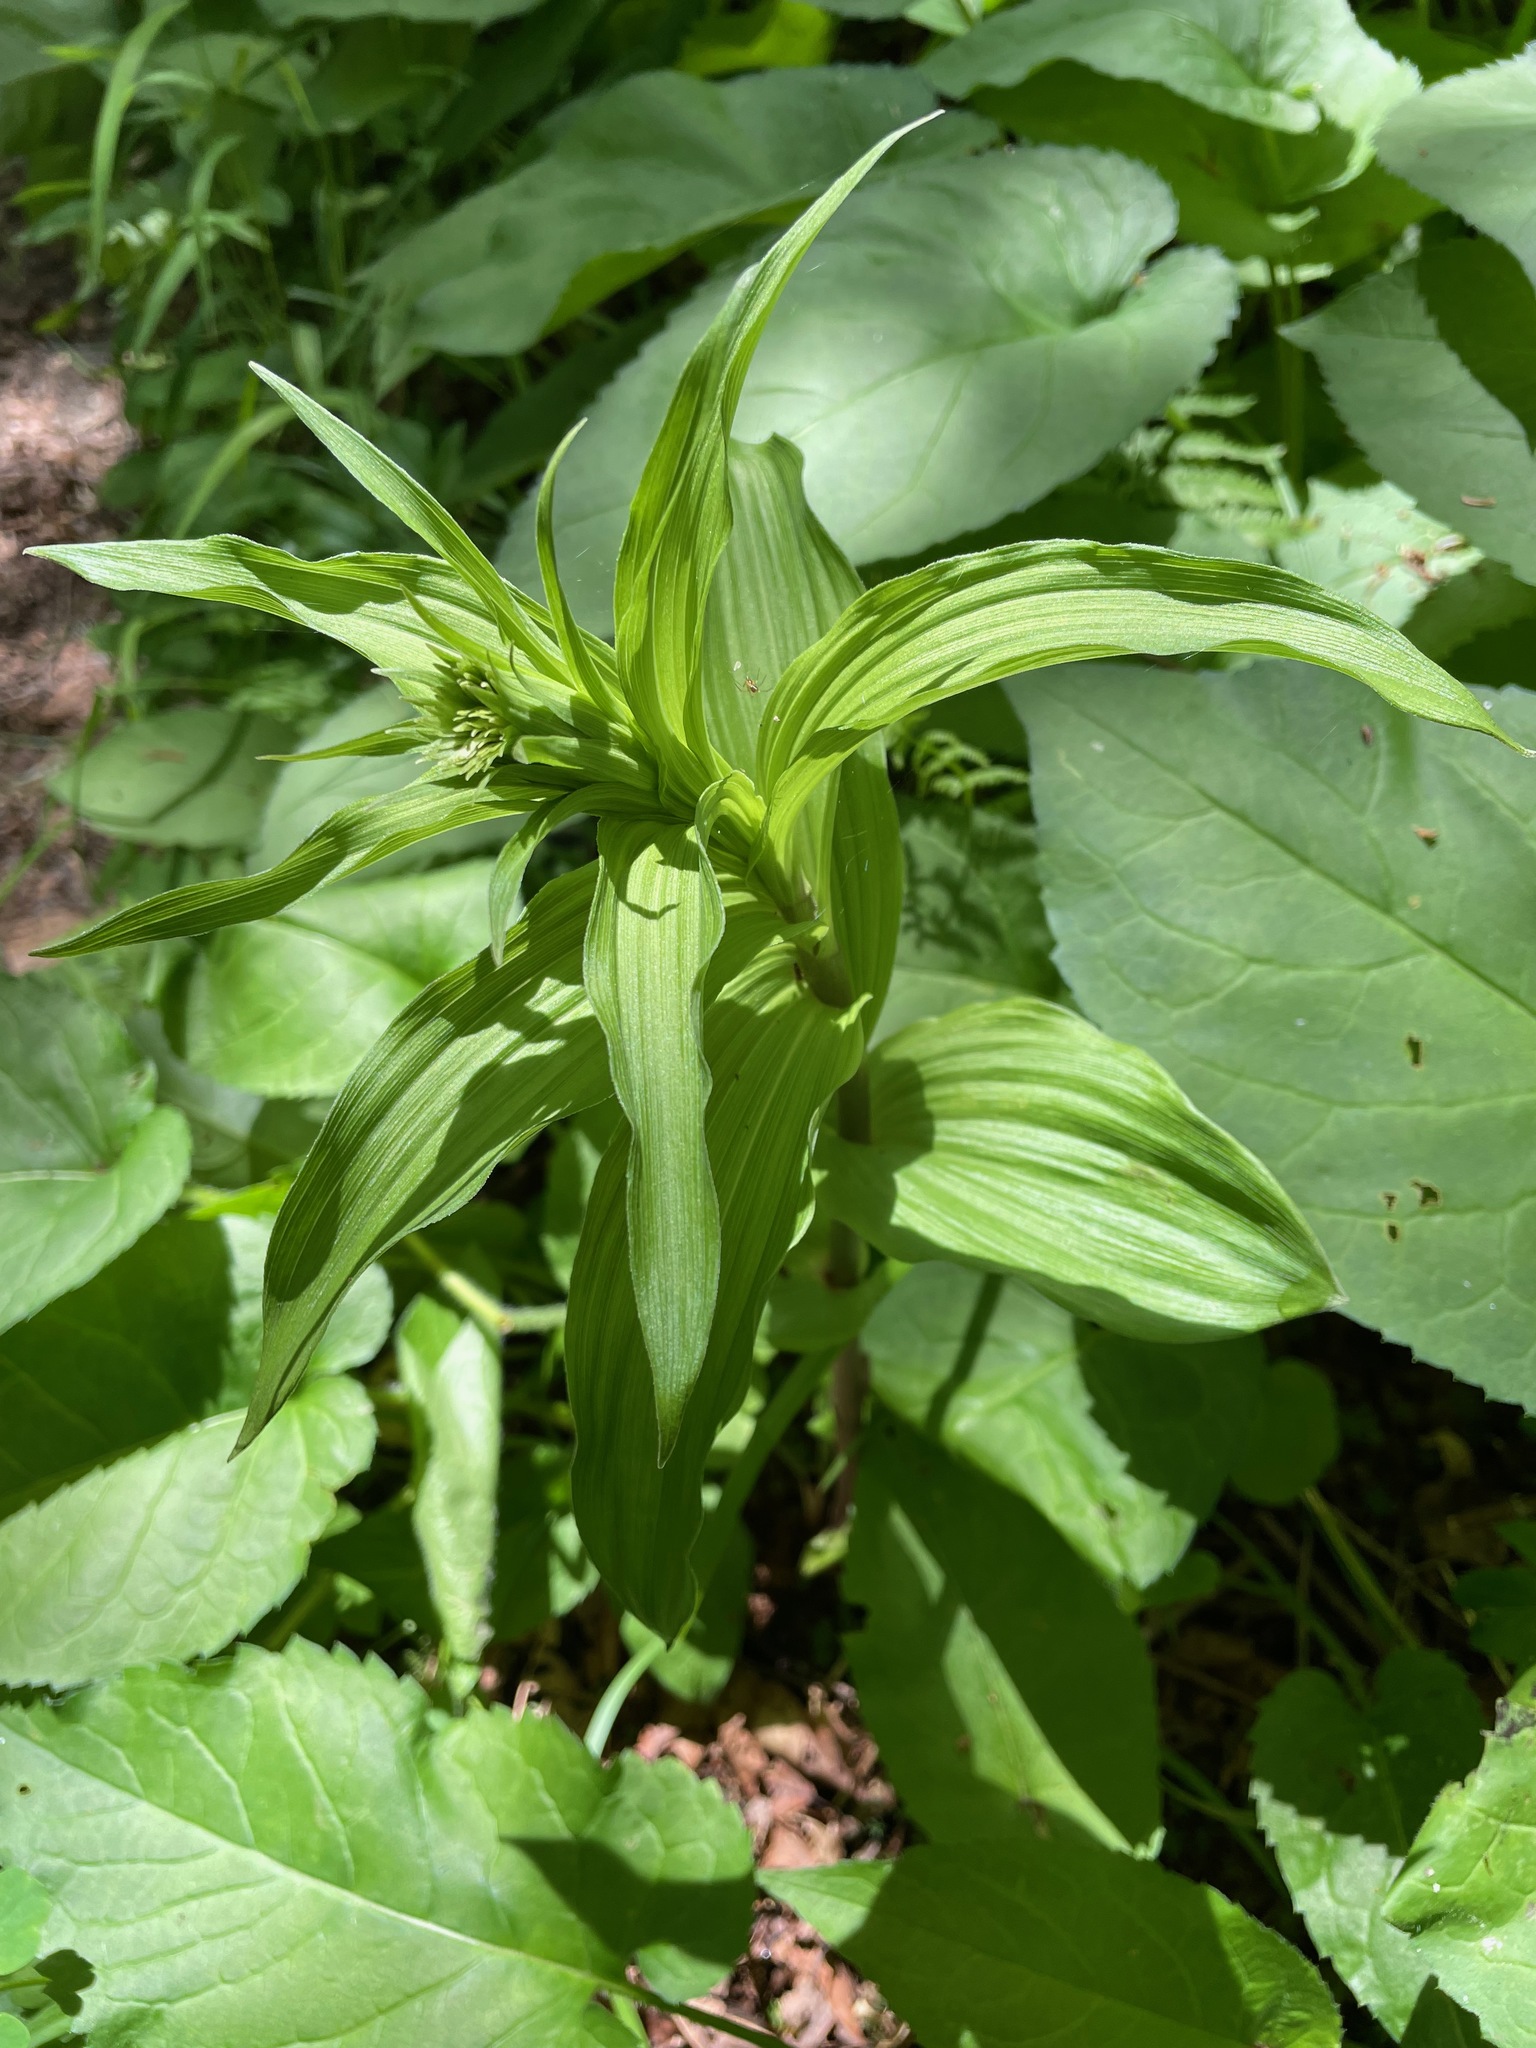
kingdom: Plantae
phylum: Tracheophyta
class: Liliopsida
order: Asparagales
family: Orchidaceae
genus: Epipactis
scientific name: Epipactis helleborine
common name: Broad-leaved helleborine
